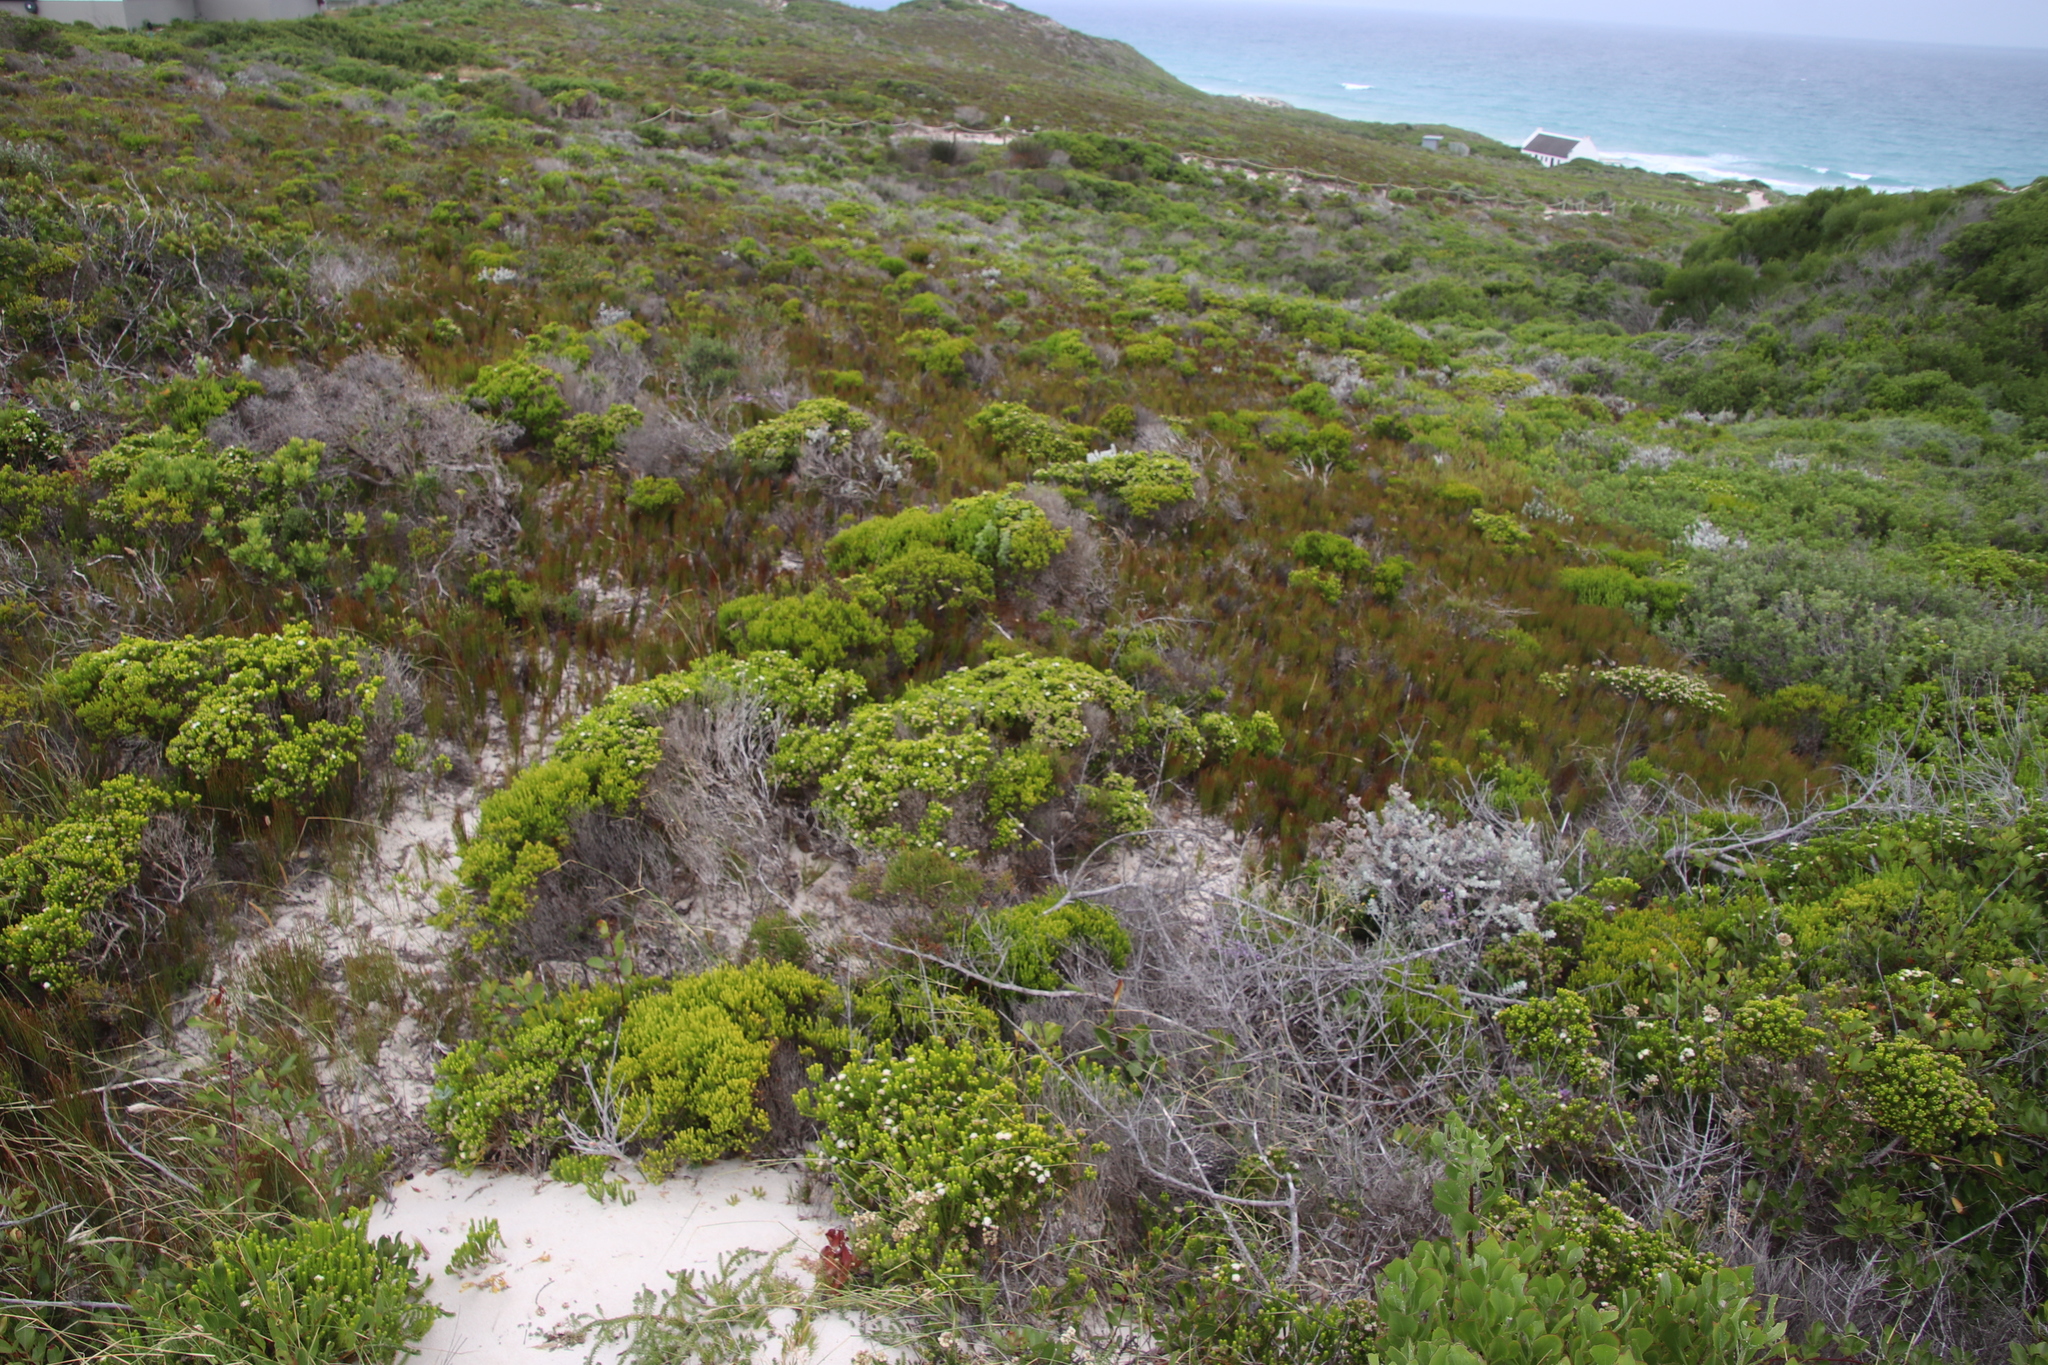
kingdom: Plantae
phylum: Tracheophyta
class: Magnoliopsida
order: Sapindales
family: Rutaceae
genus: Agathosma
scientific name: Agathosma collina
